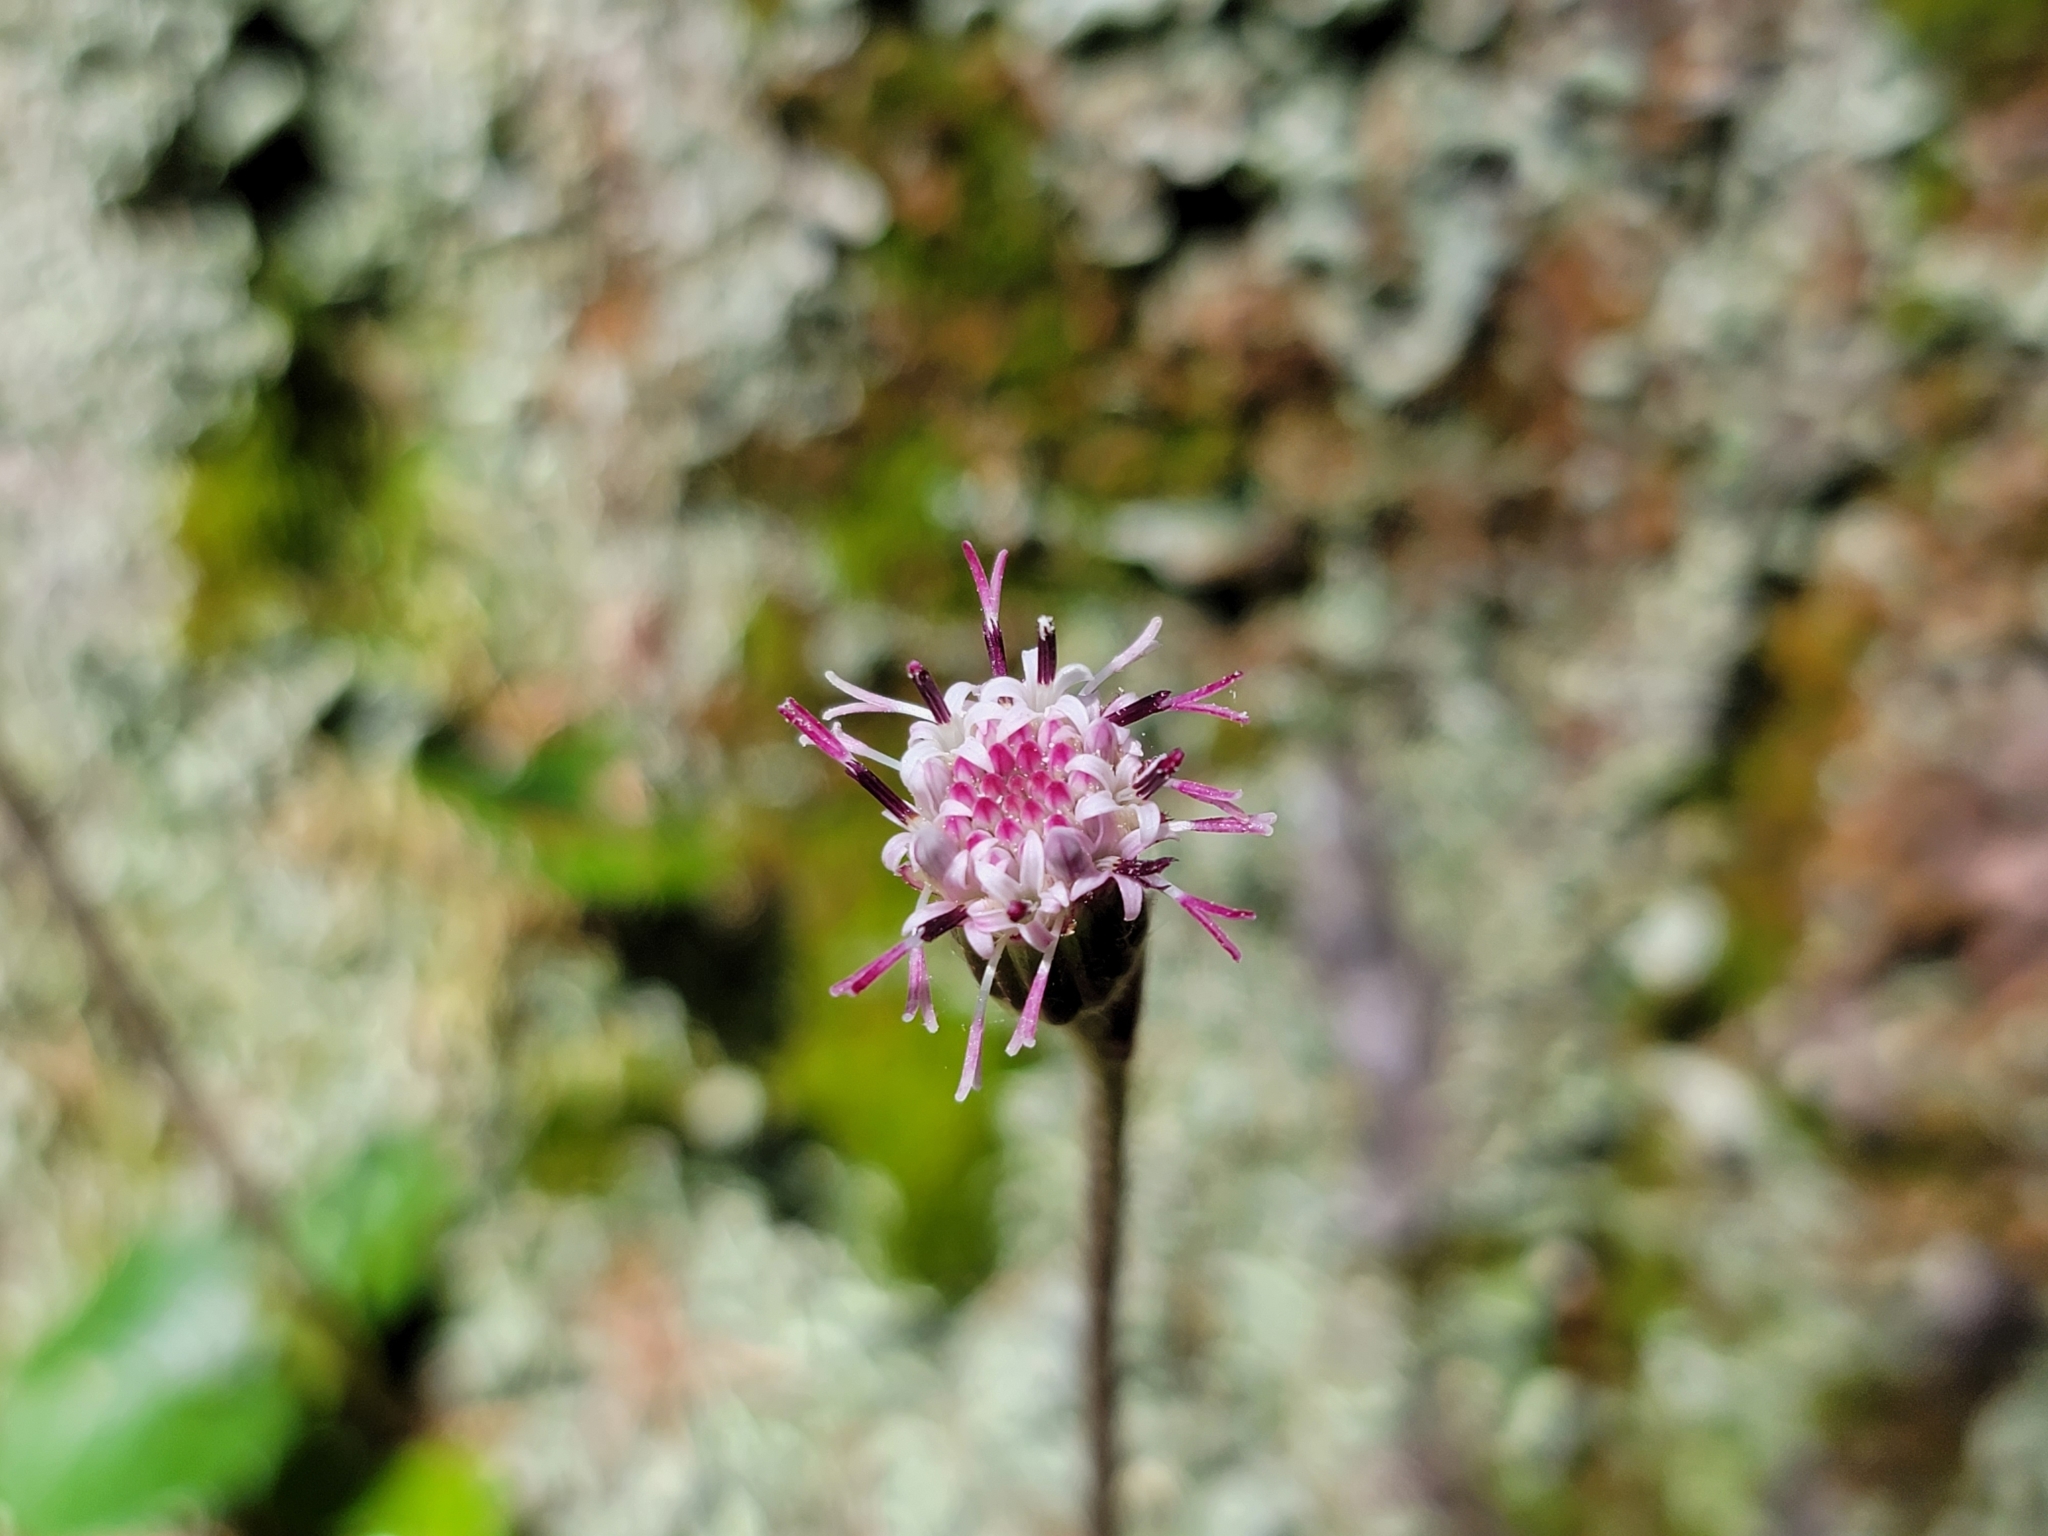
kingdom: Plantae
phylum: Tracheophyta
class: Magnoliopsida
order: Asterales
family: Asteraceae
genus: Homogyne
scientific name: Homogyne alpina
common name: Purple colt's-foot
